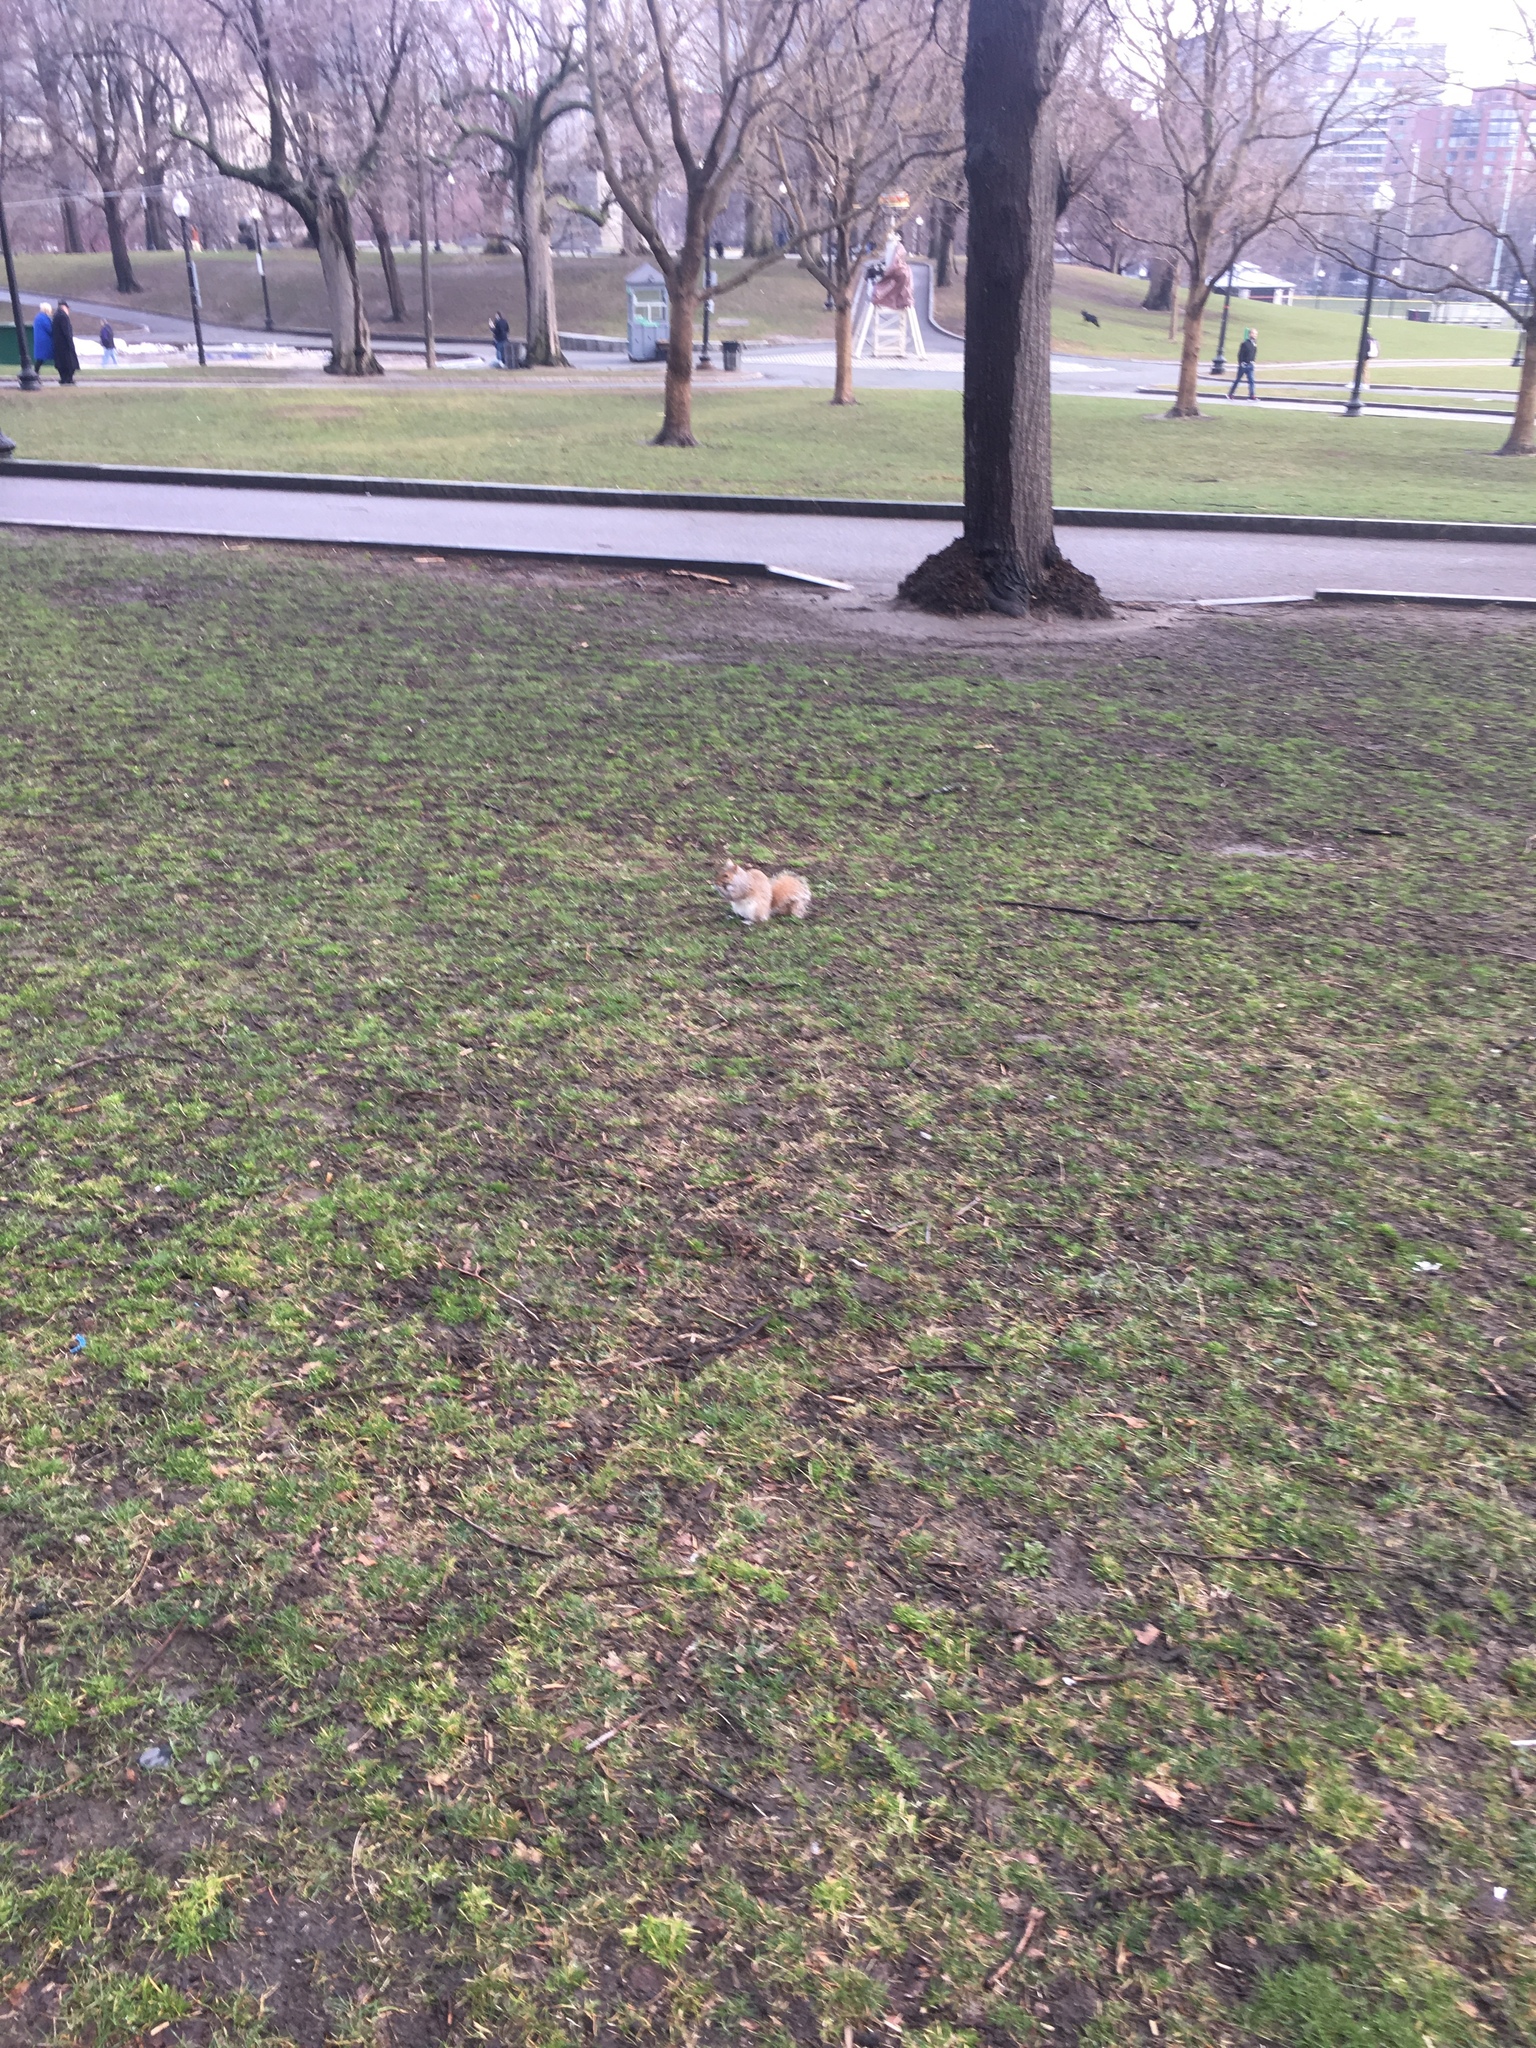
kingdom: Animalia
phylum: Chordata
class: Mammalia
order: Rodentia
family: Sciuridae
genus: Sciurus
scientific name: Sciurus carolinensis
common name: Eastern gray squirrel
